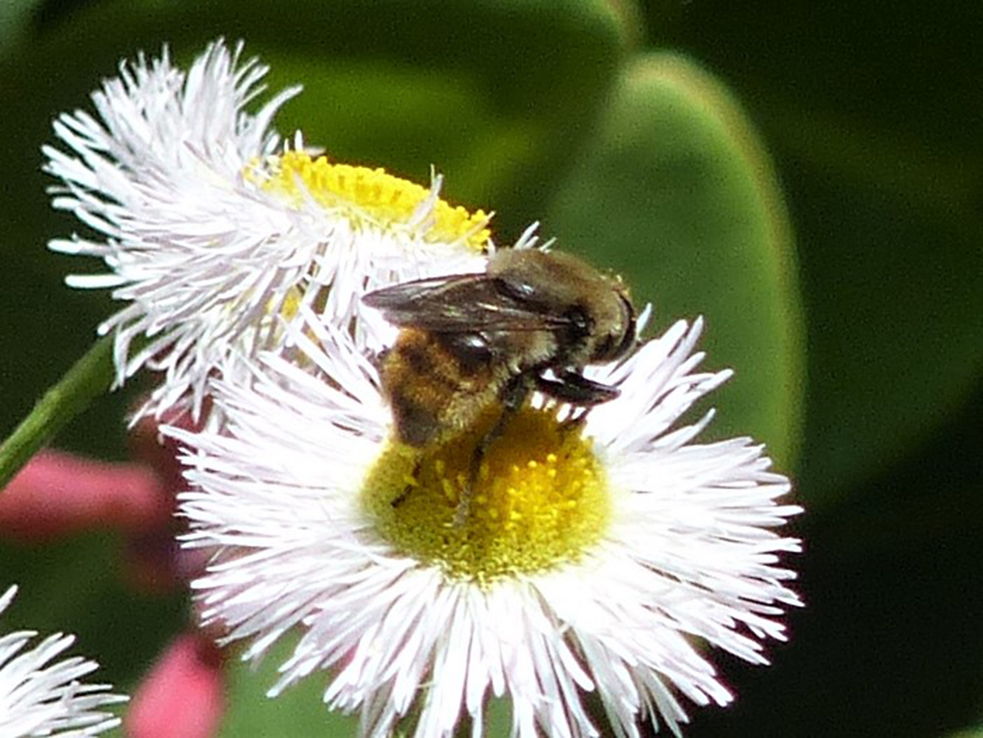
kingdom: Animalia
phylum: Arthropoda
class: Insecta
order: Diptera
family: Syrphidae
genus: Merodon
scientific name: Merodon equestris
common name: Greater bulb-fly
